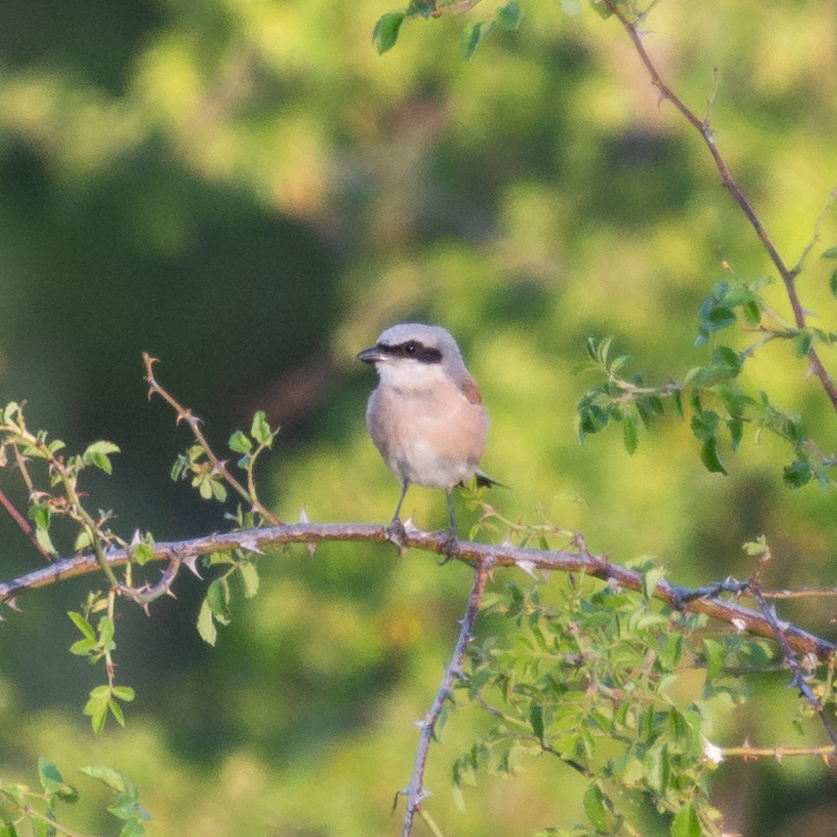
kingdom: Animalia
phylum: Chordata
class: Aves
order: Passeriformes
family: Laniidae
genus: Lanius
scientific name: Lanius collurio
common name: Red-backed shrike
